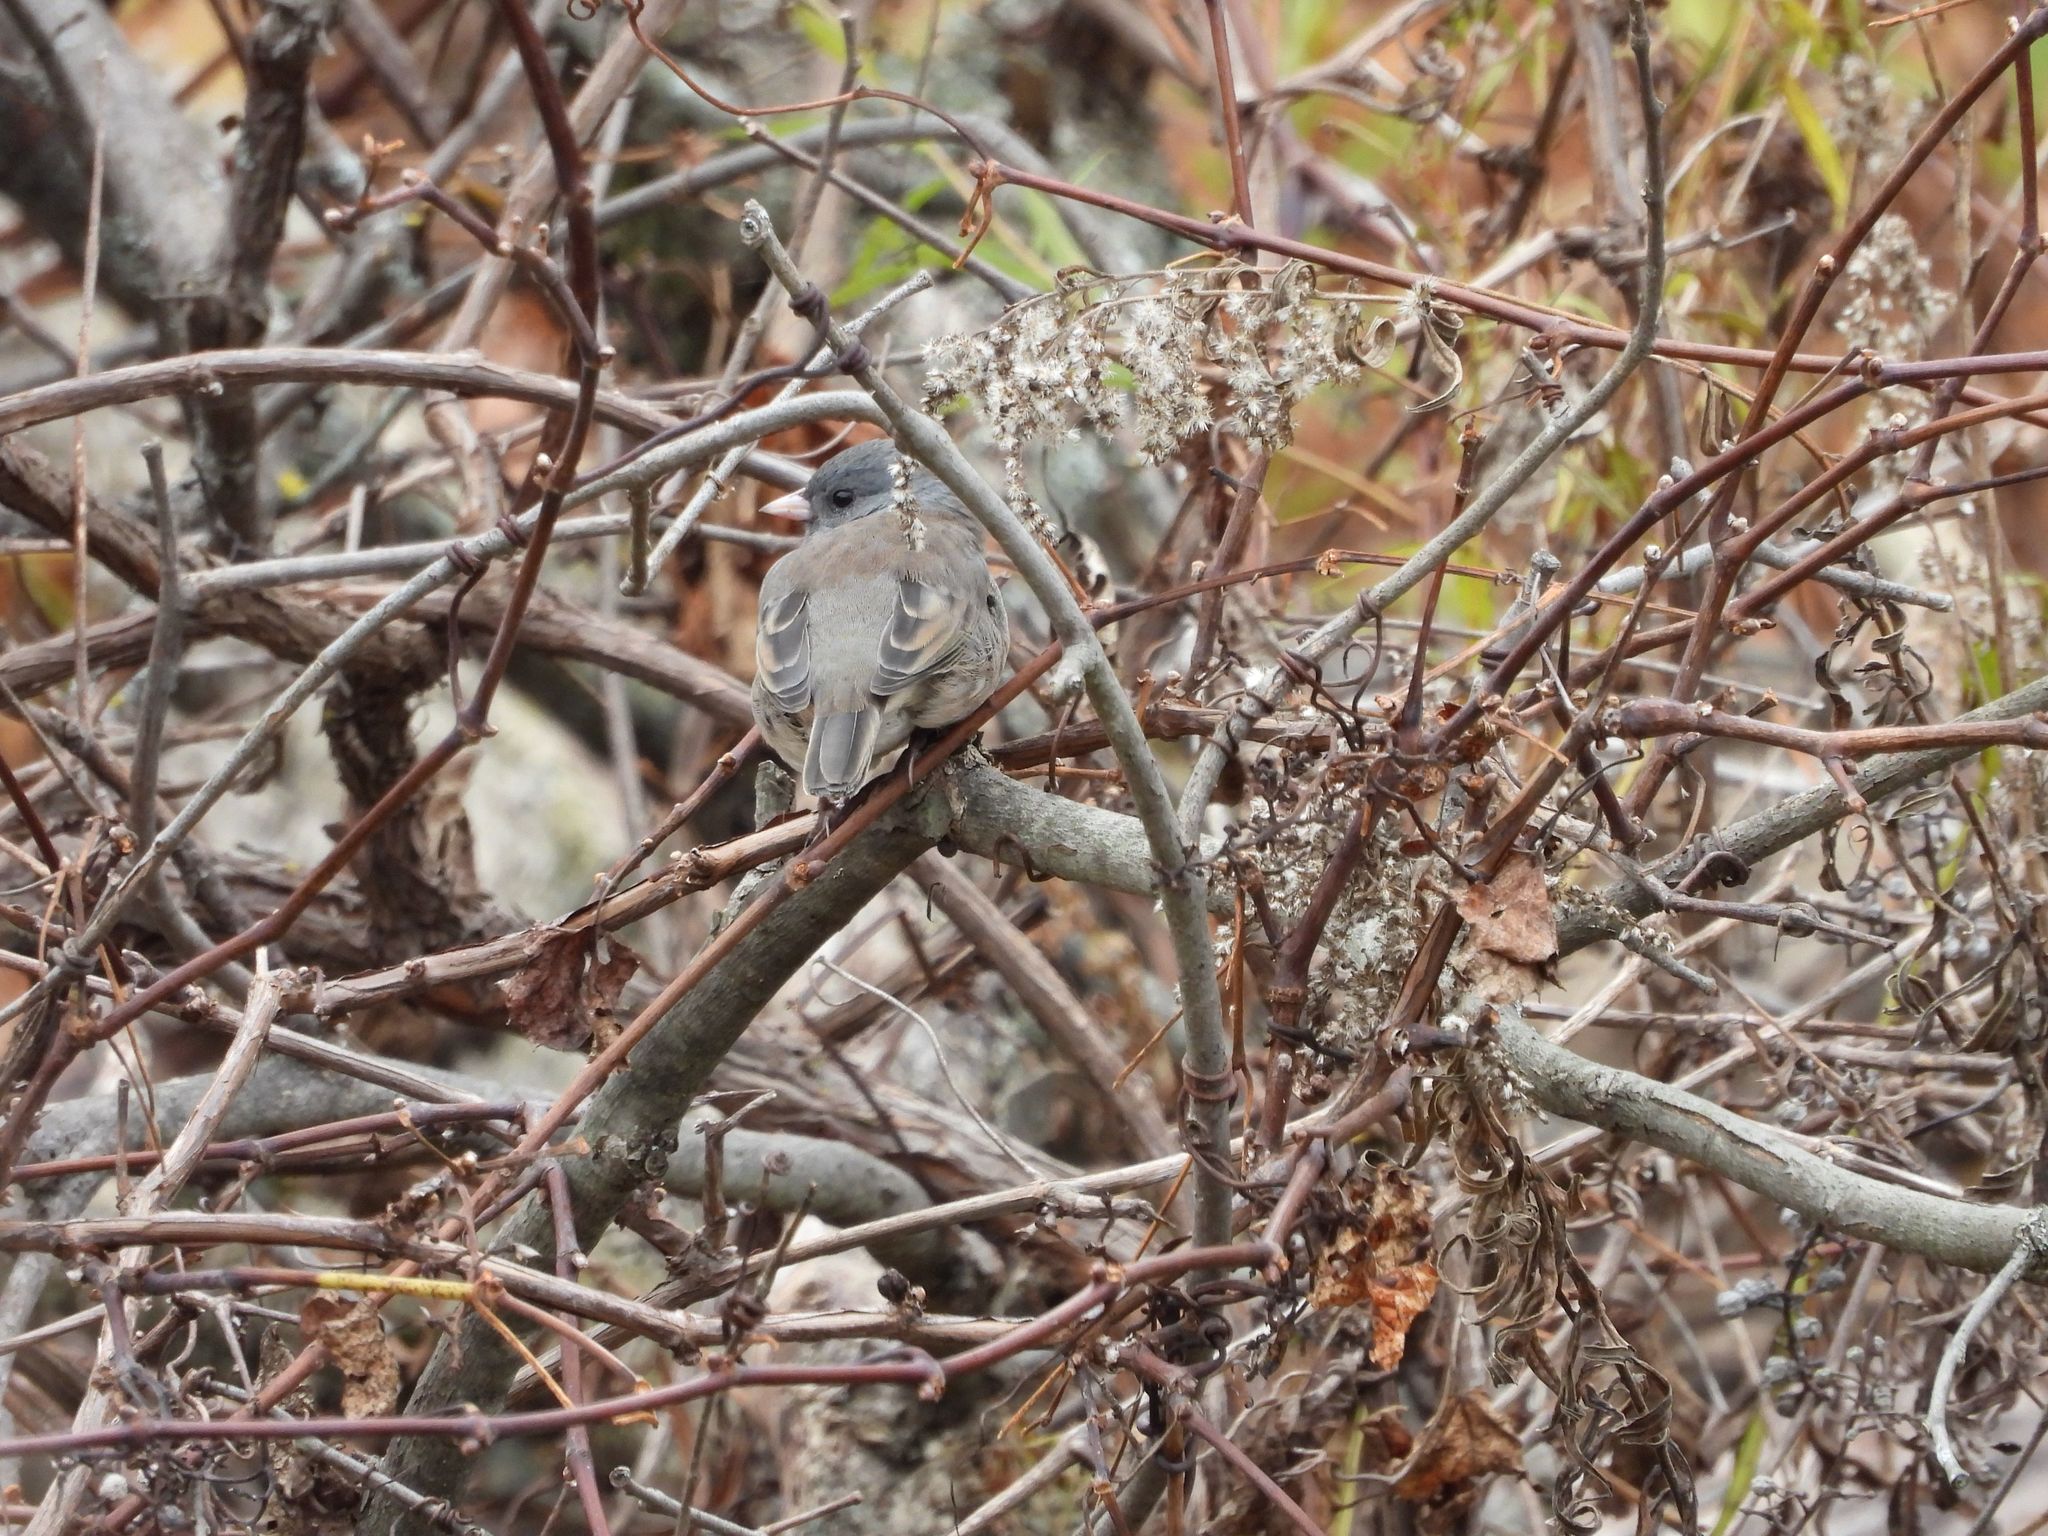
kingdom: Animalia
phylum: Chordata
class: Aves
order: Passeriformes
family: Passerellidae
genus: Junco
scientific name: Junco hyemalis
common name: Dark-eyed junco
